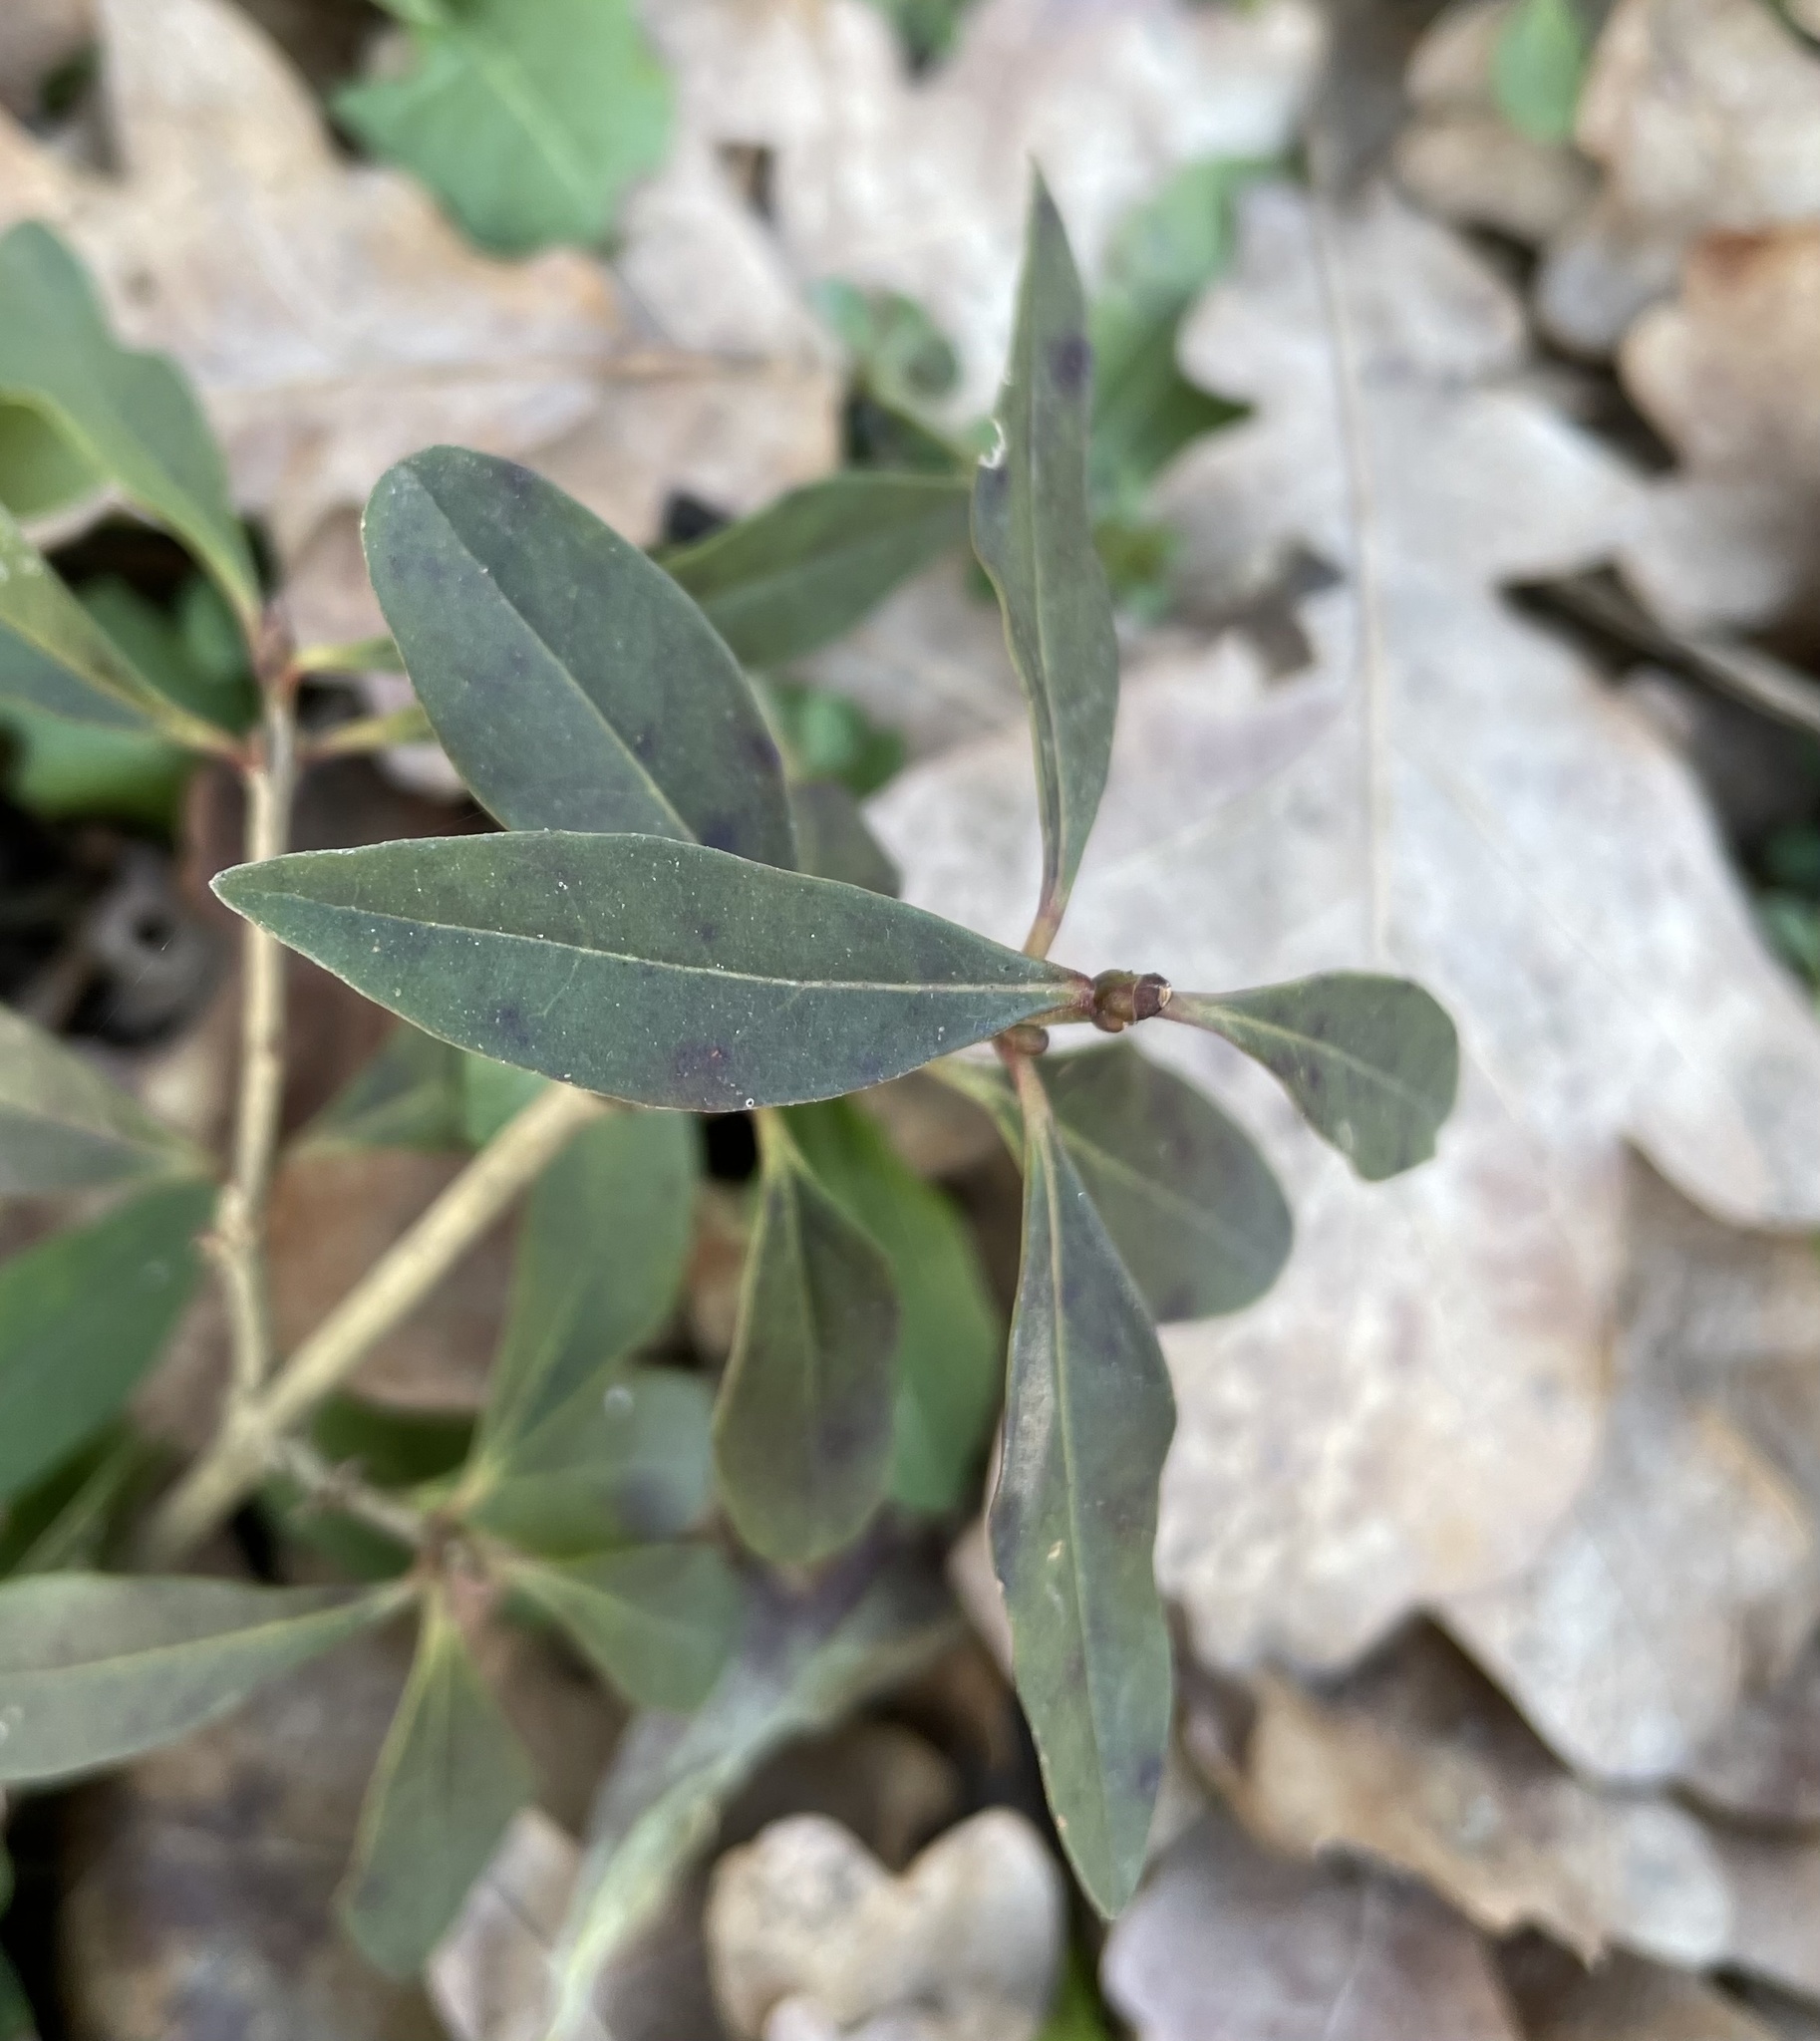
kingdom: Plantae
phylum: Tracheophyta
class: Magnoliopsida
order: Lamiales
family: Oleaceae
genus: Ligustrum
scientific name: Ligustrum vulgare
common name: Wild privet
